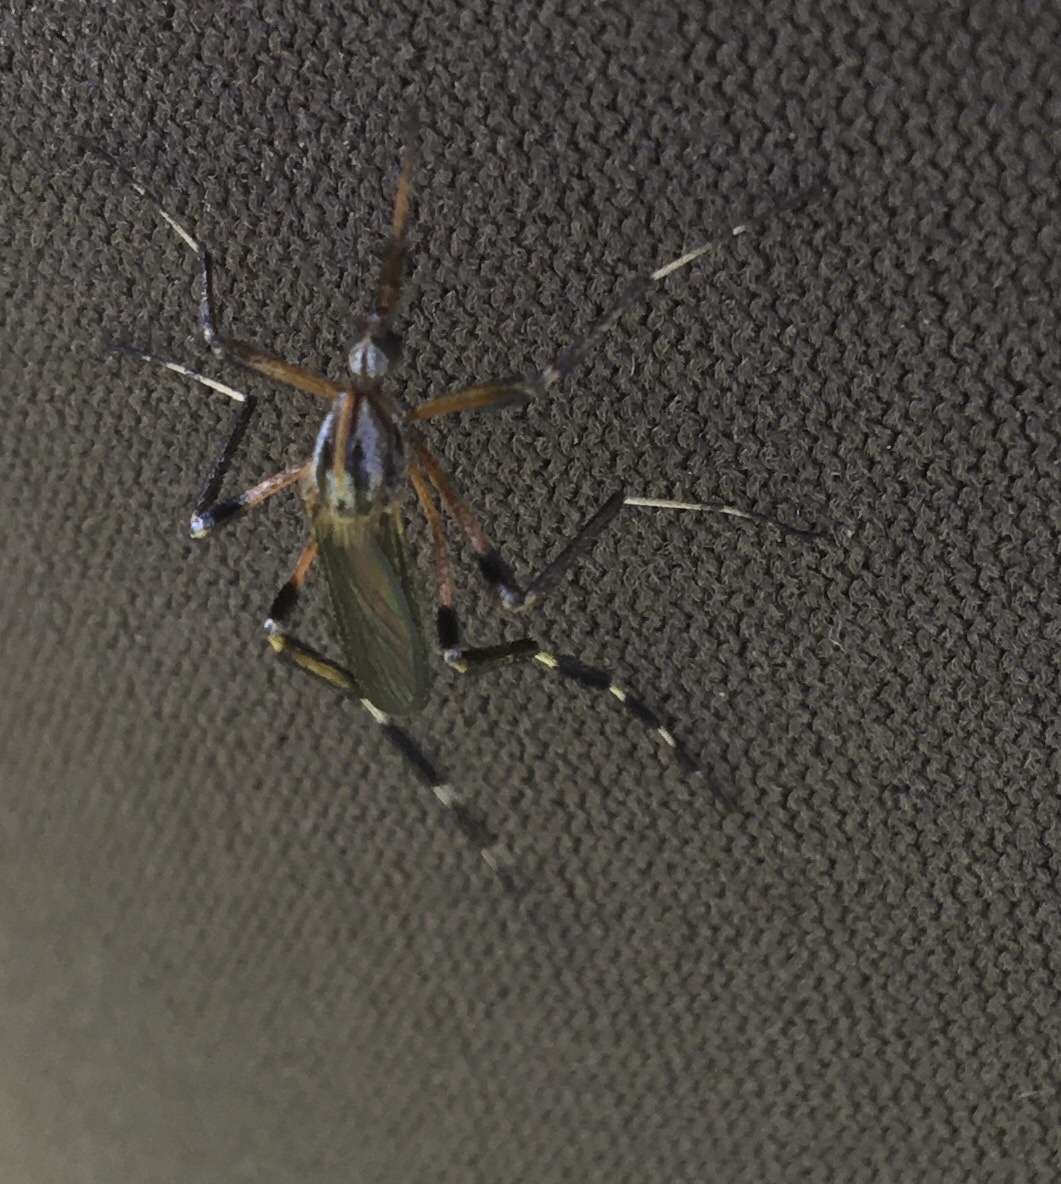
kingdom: Animalia
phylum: Arthropoda
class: Insecta
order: Diptera
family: Culicidae
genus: Psorophora
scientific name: Psorophora ciliata
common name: Gallinipper
